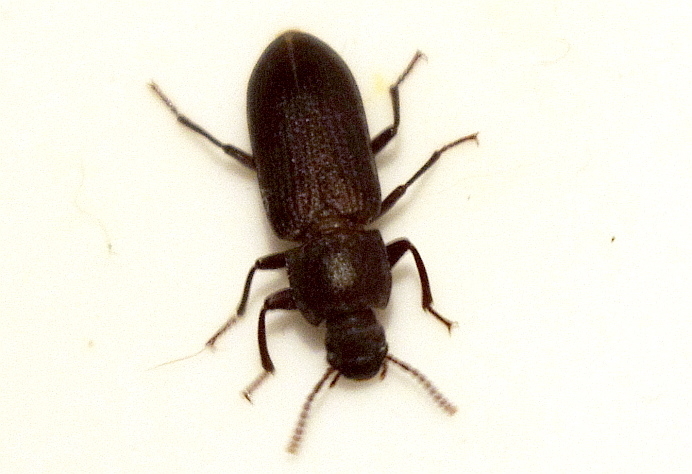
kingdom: Animalia
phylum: Arthropoda
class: Insecta
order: Coleoptera
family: Tenebrionidae
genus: Tenebrio
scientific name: Tenebrio molitor
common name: Hardback beetle
